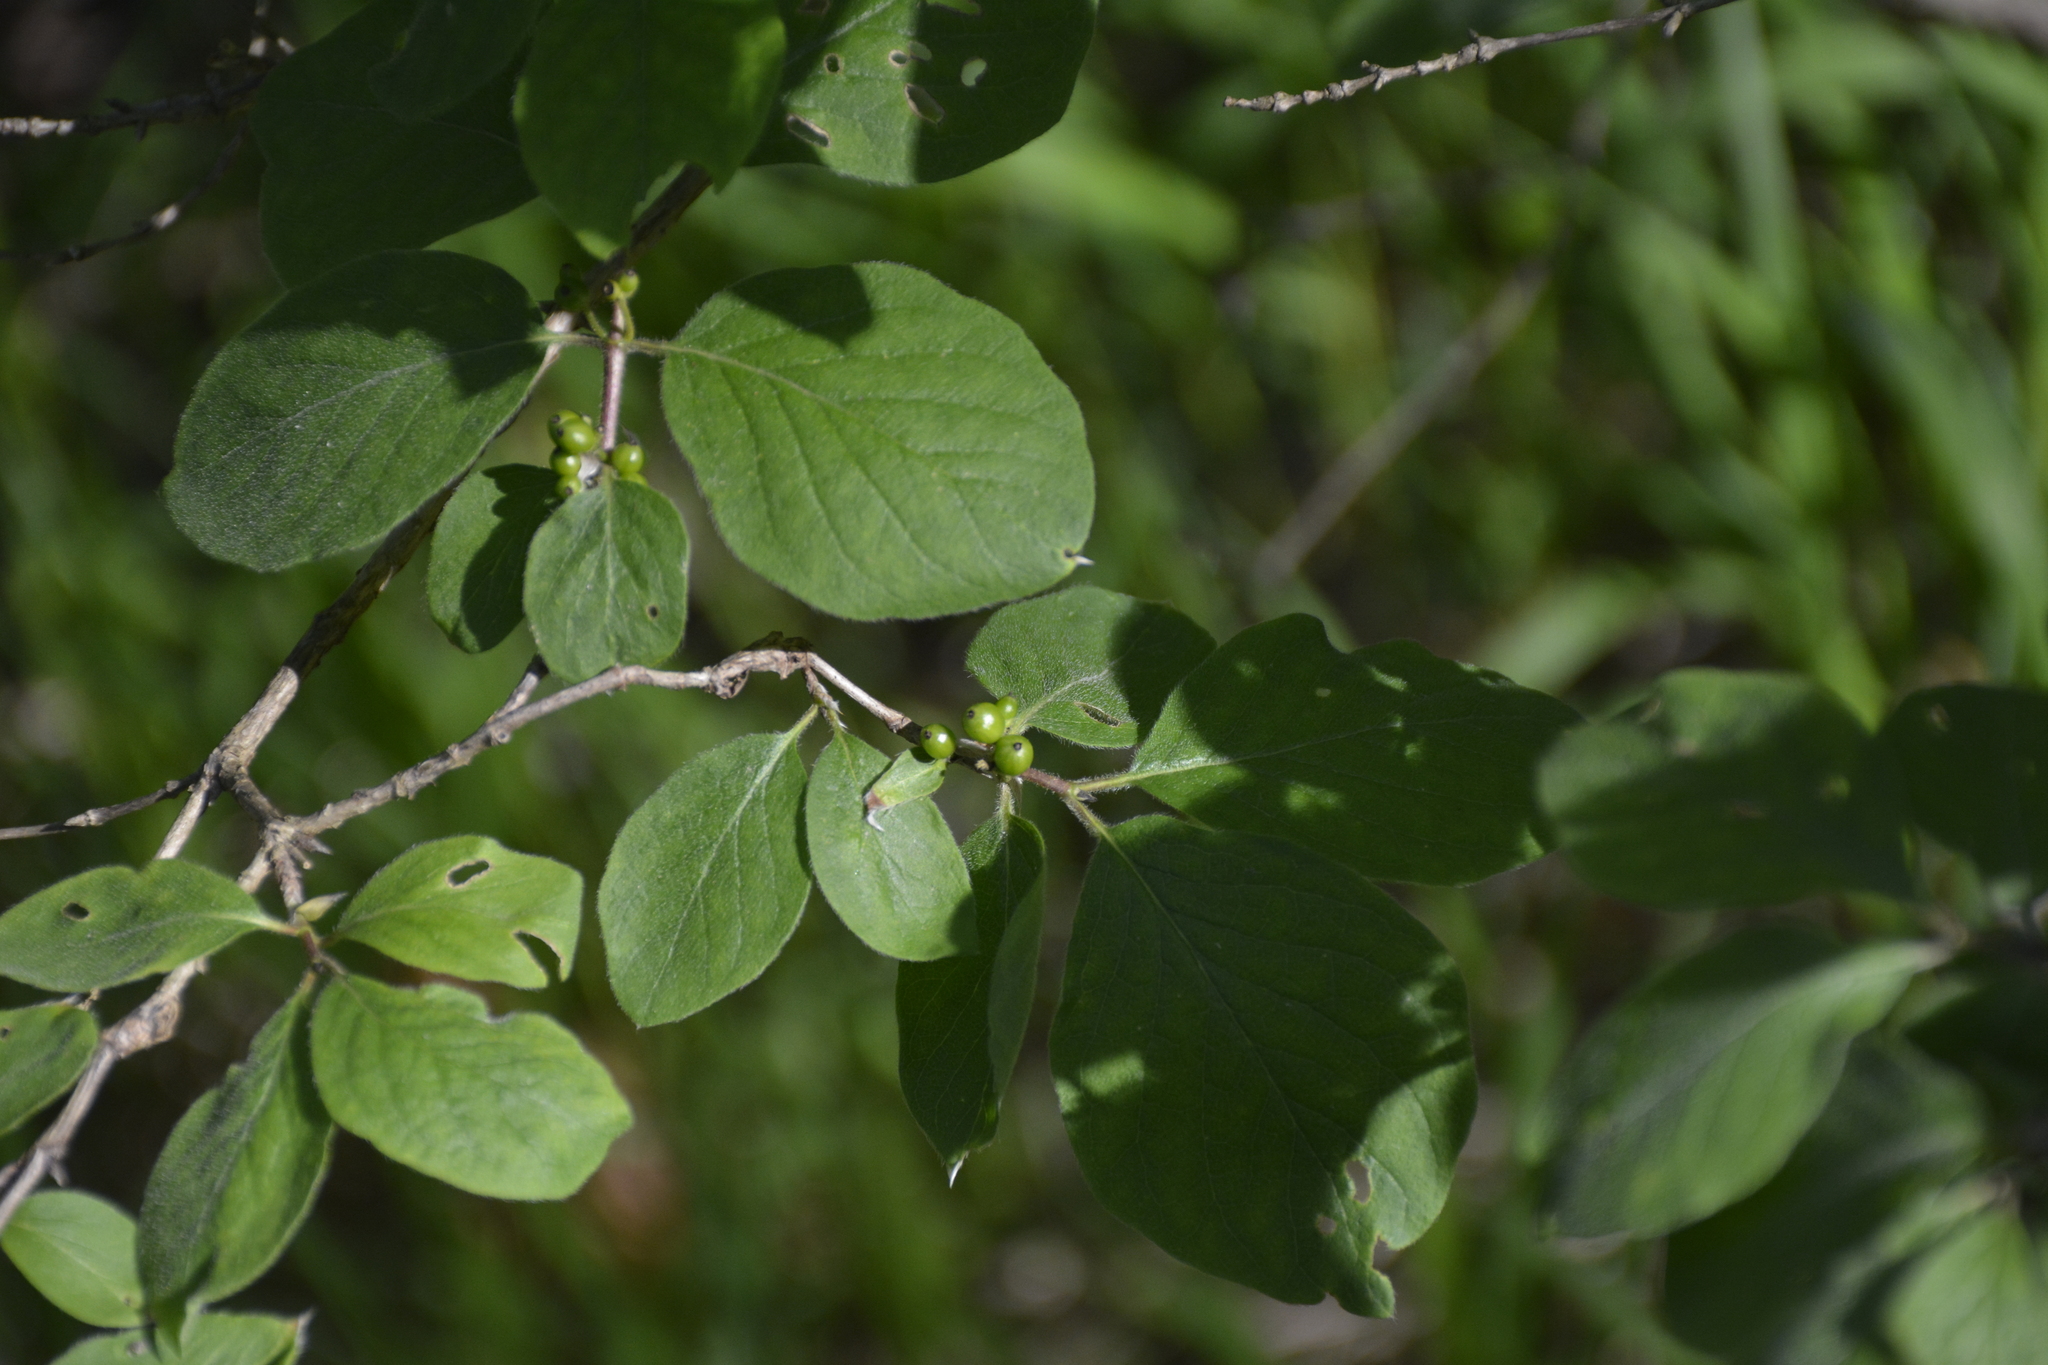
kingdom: Plantae
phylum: Tracheophyta
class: Magnoliopsida
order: Dipsacales
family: Caprifoliaceae
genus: Lonicera
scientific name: Lonicera xylosteum
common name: Fly honeysuckle
